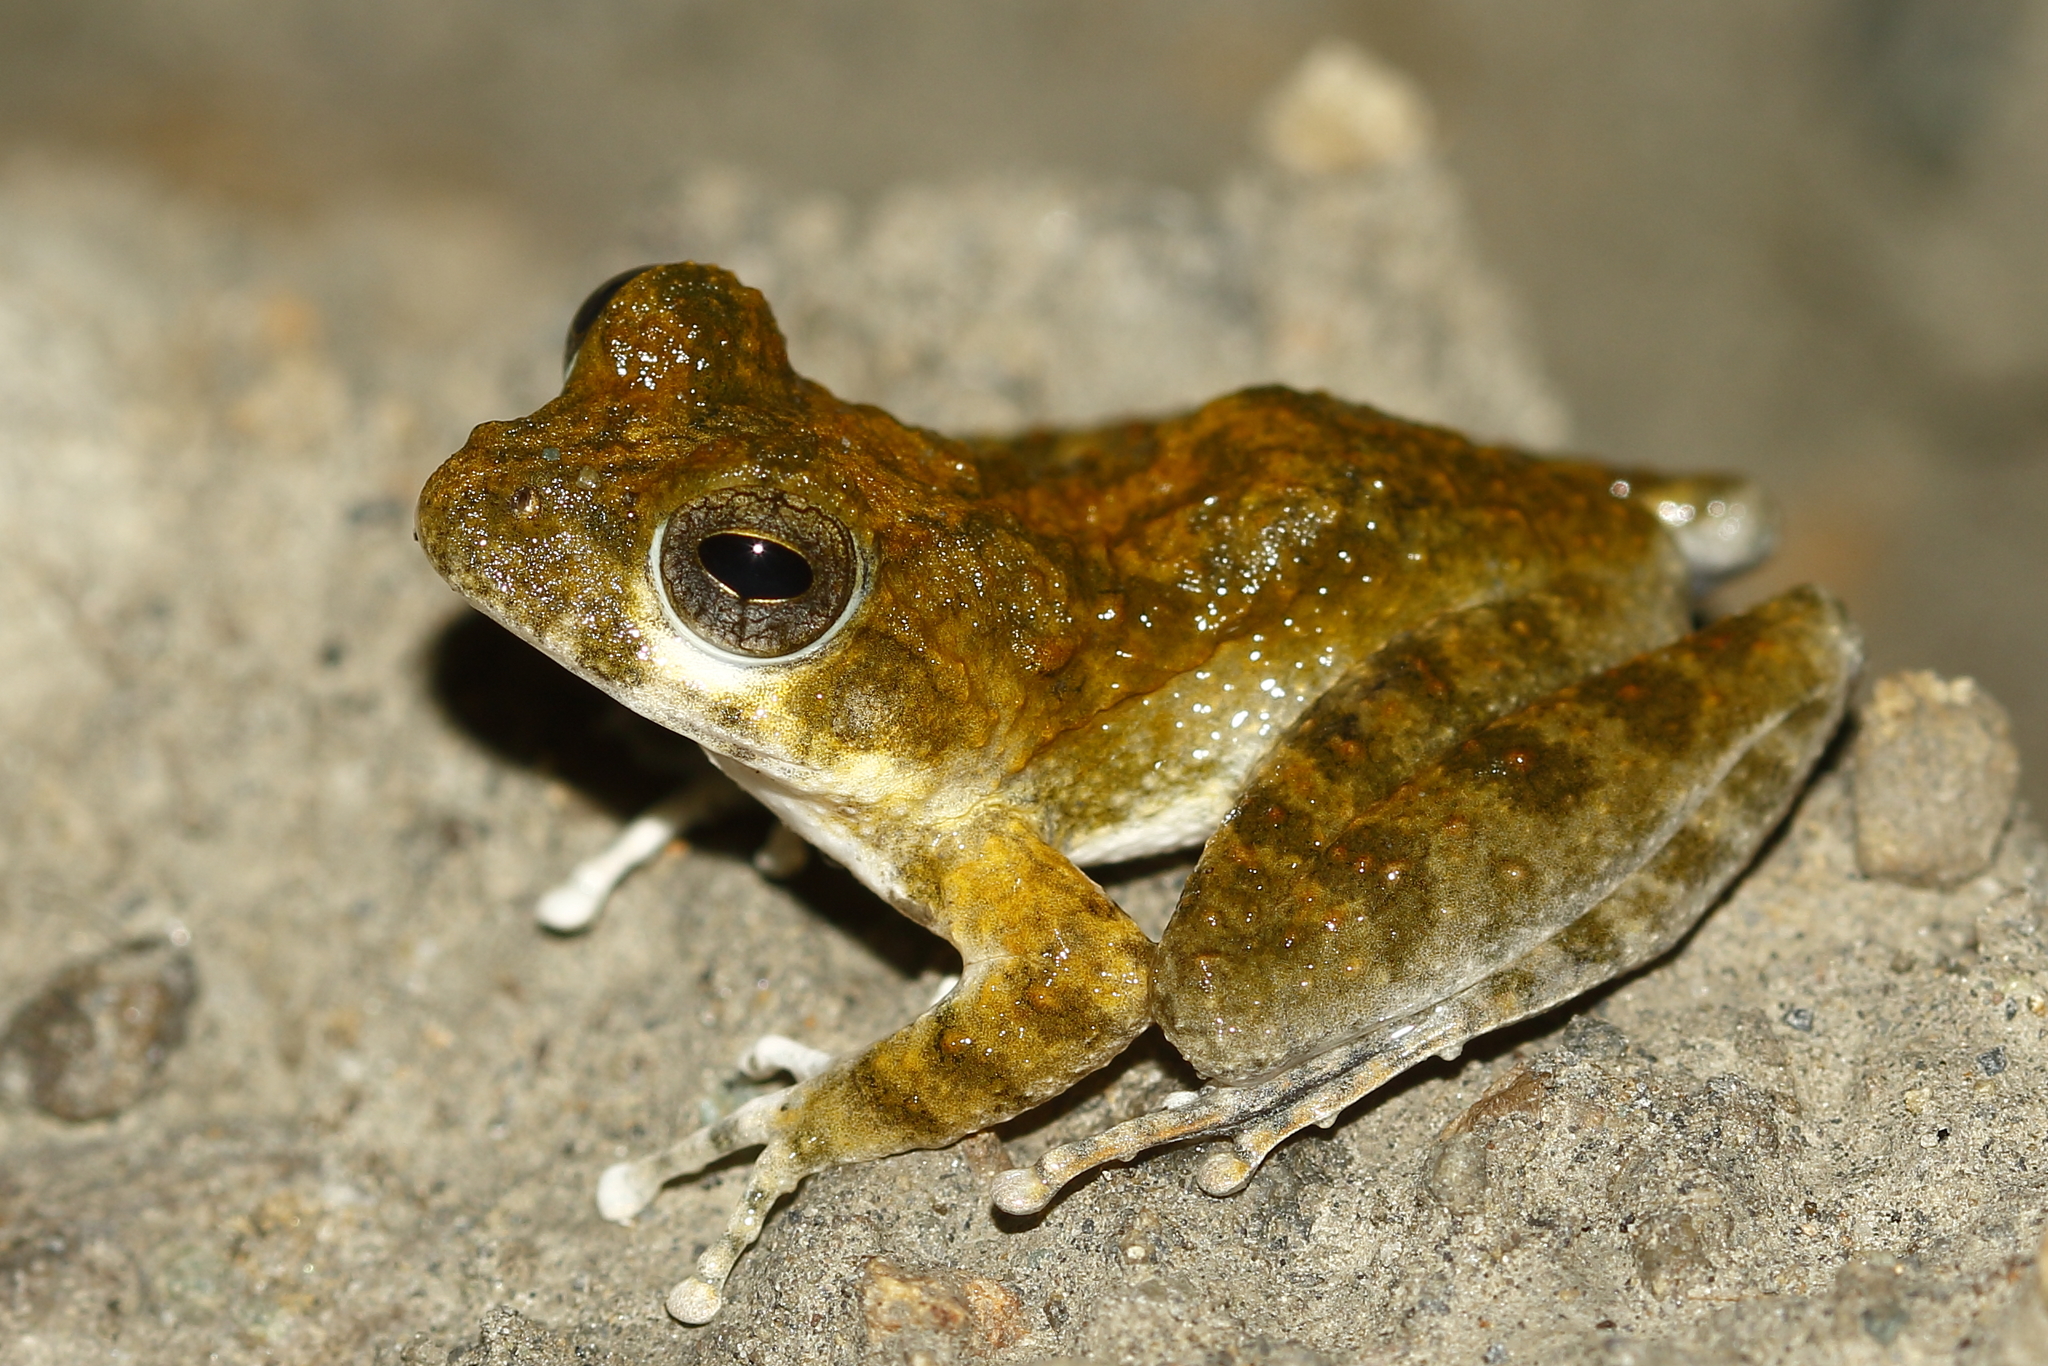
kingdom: Animalia
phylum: Chordata
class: Amphibia
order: Anura
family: Rhacophoridae
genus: Buergeria
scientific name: Buergeria otai
